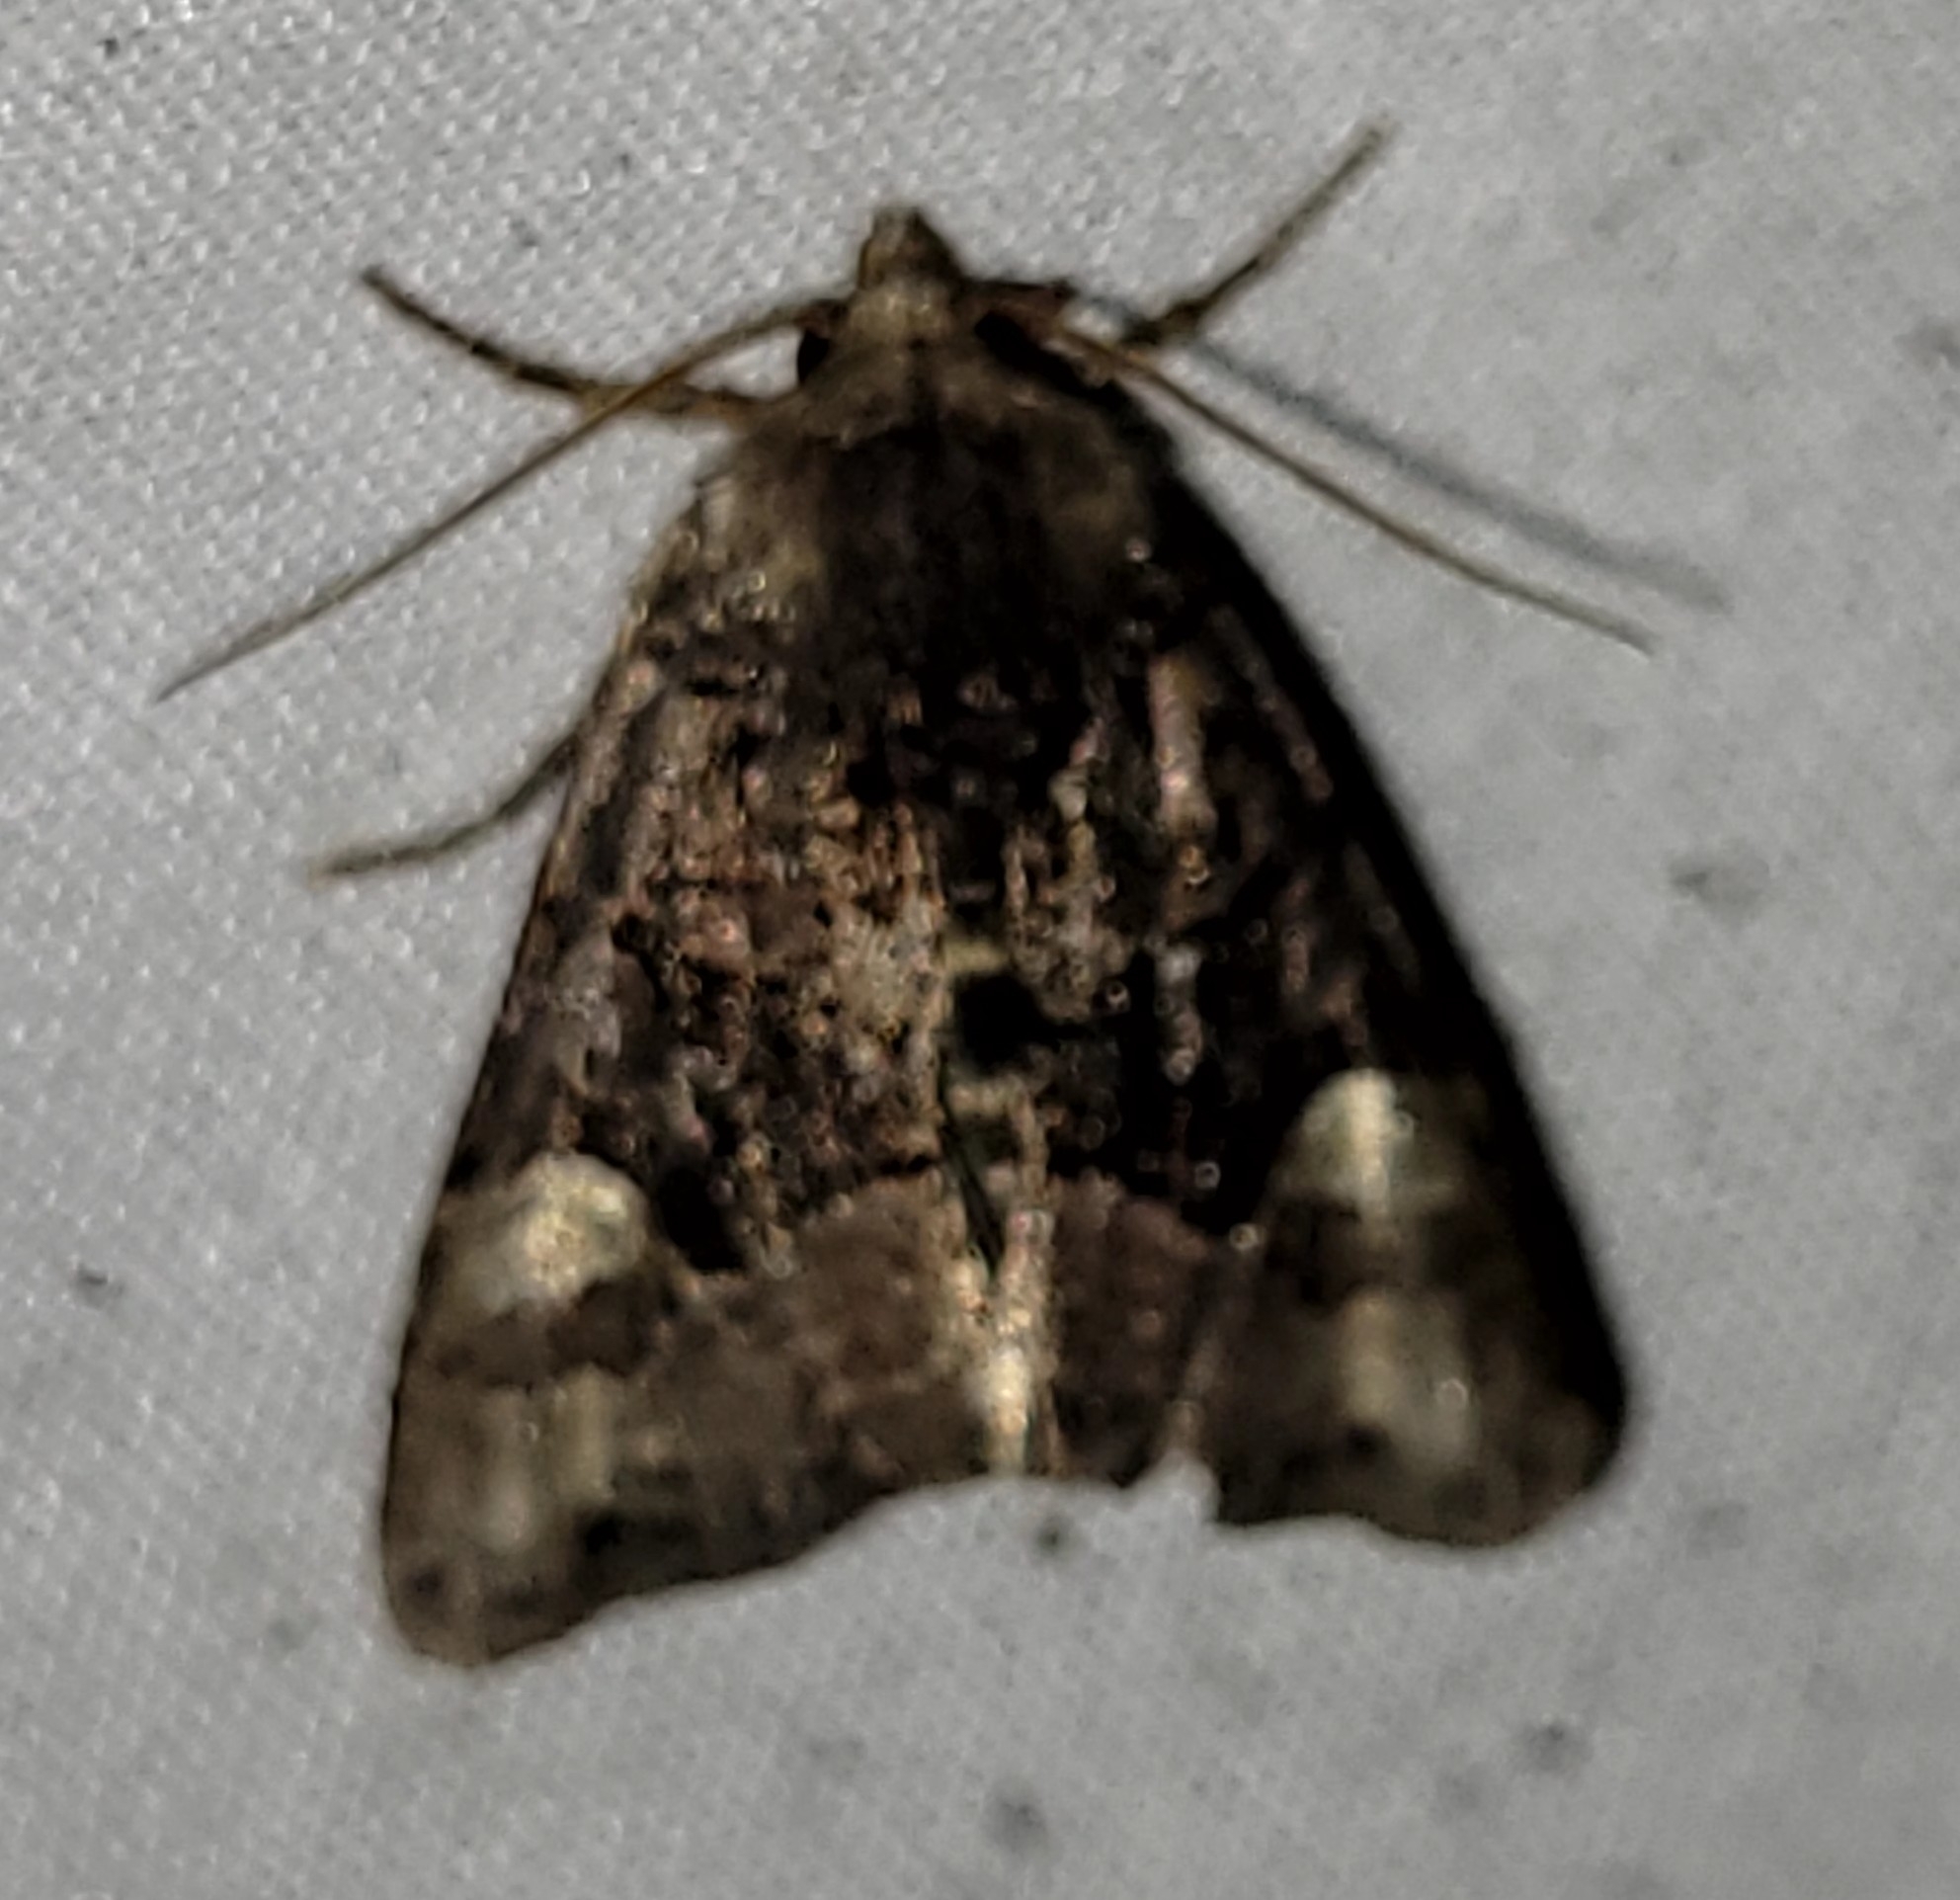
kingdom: Animalia
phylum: Arthropoda
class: Insecta
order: Lepidoptera
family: Noctuidae
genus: Euplexia
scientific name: Euplexia benesimilis
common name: American angle shades
